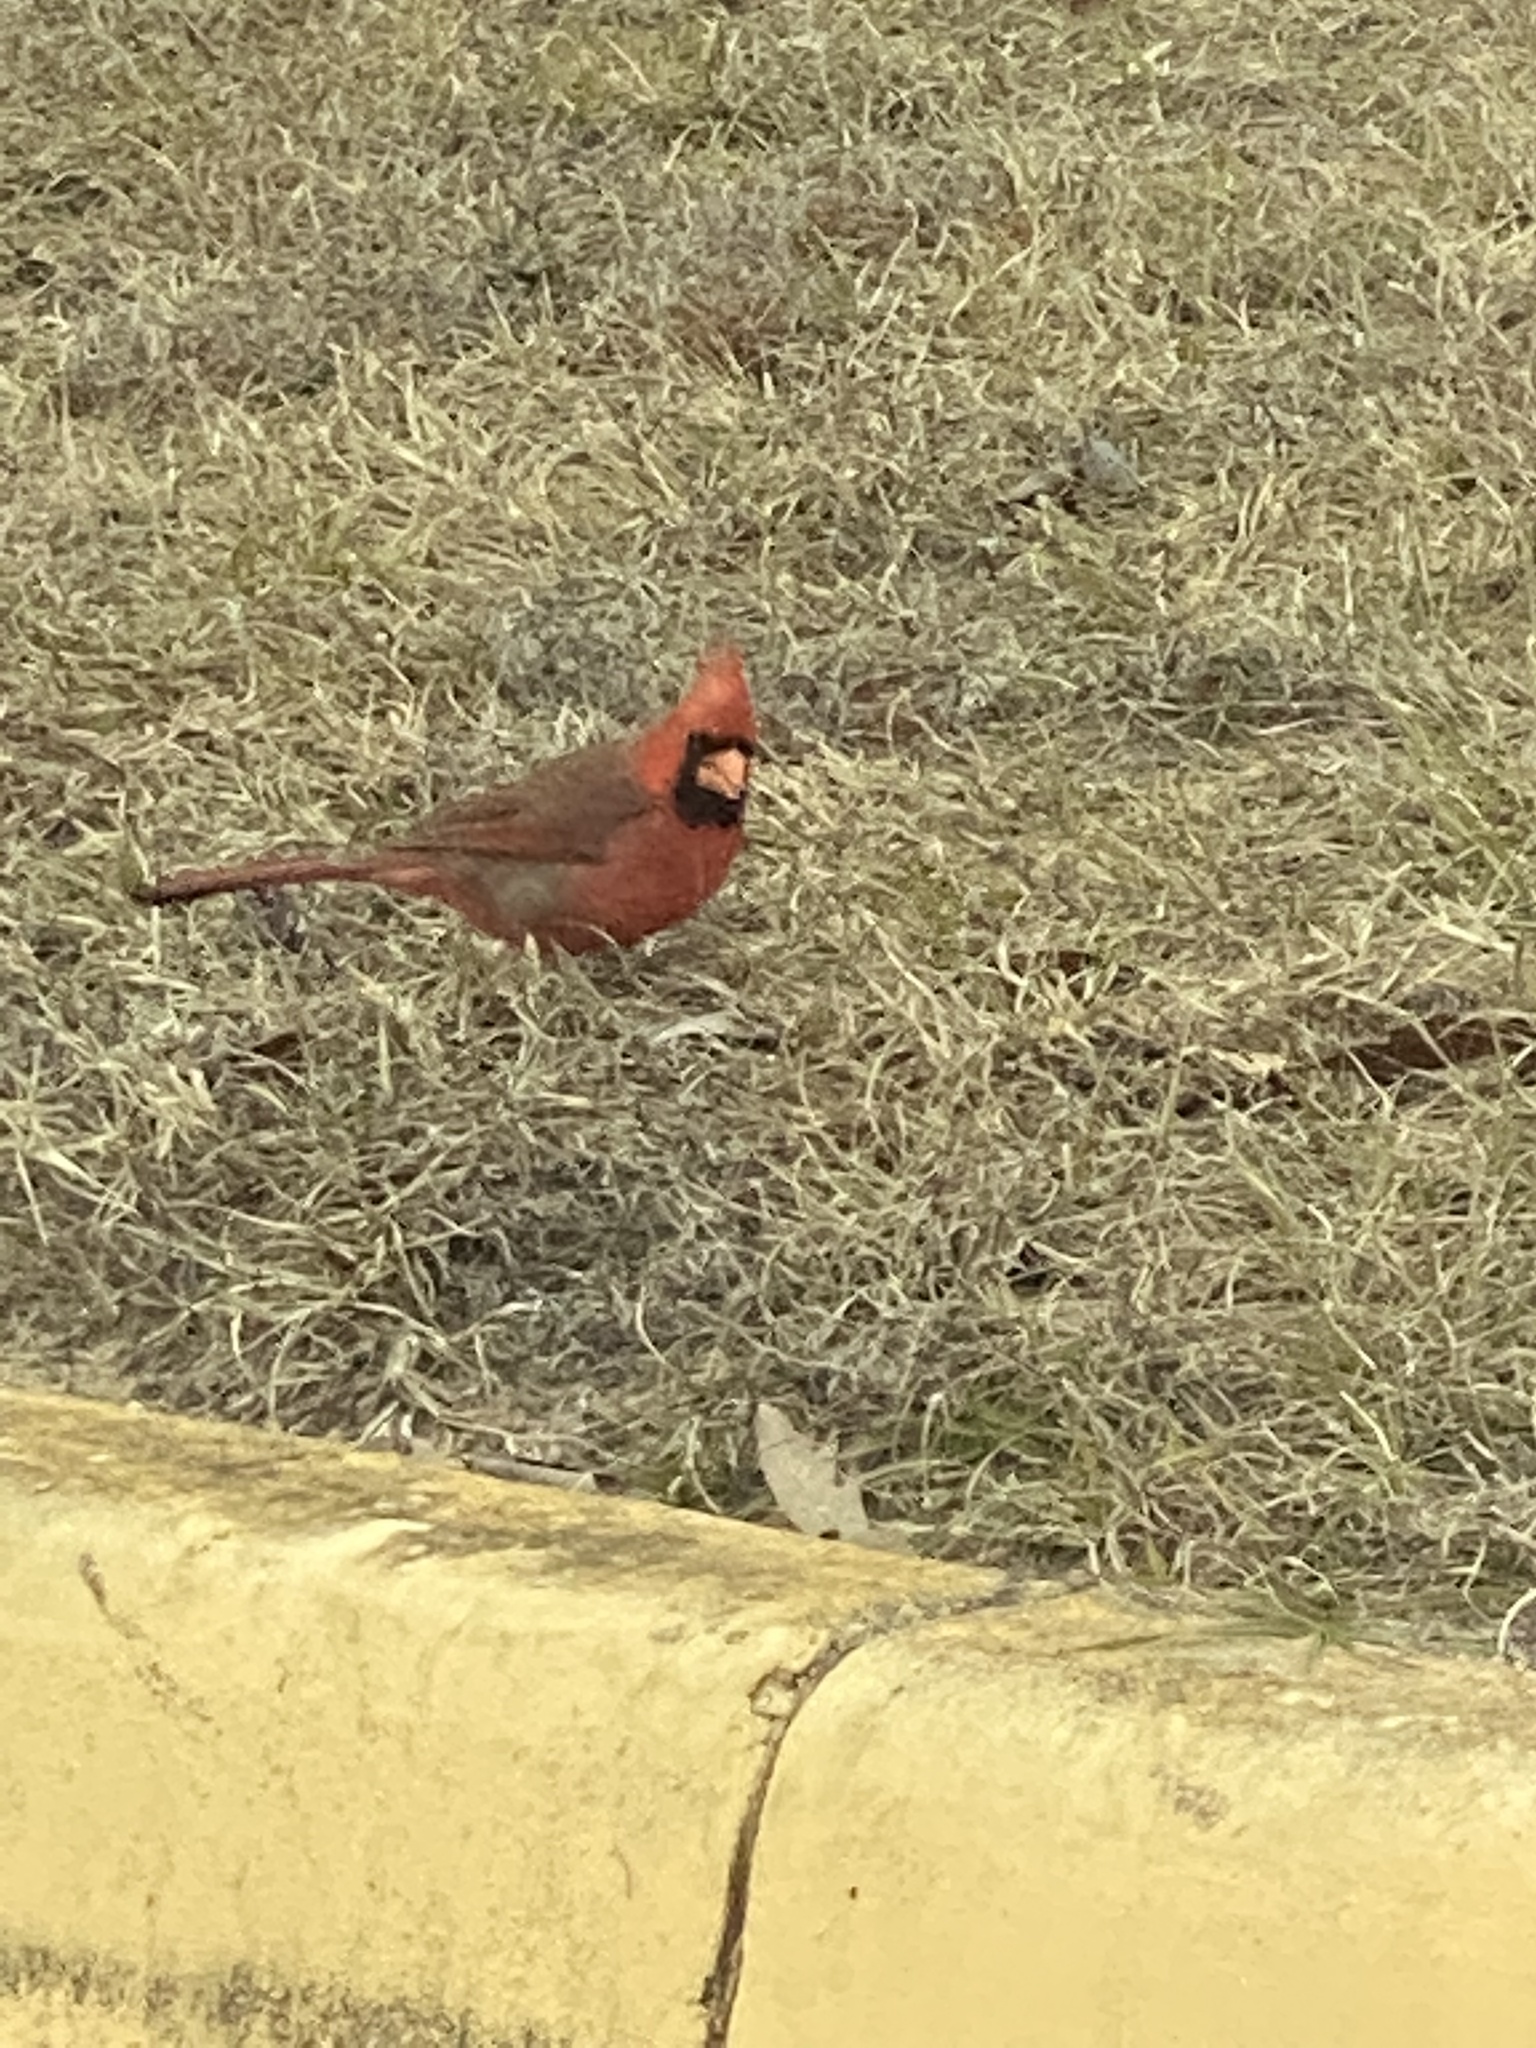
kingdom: Animalia
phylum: Chordata
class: Aves
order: Passeriformes
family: Cardinalidae
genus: Cardinalis
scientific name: Cardinalis cardinalis
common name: Northern cardinal
